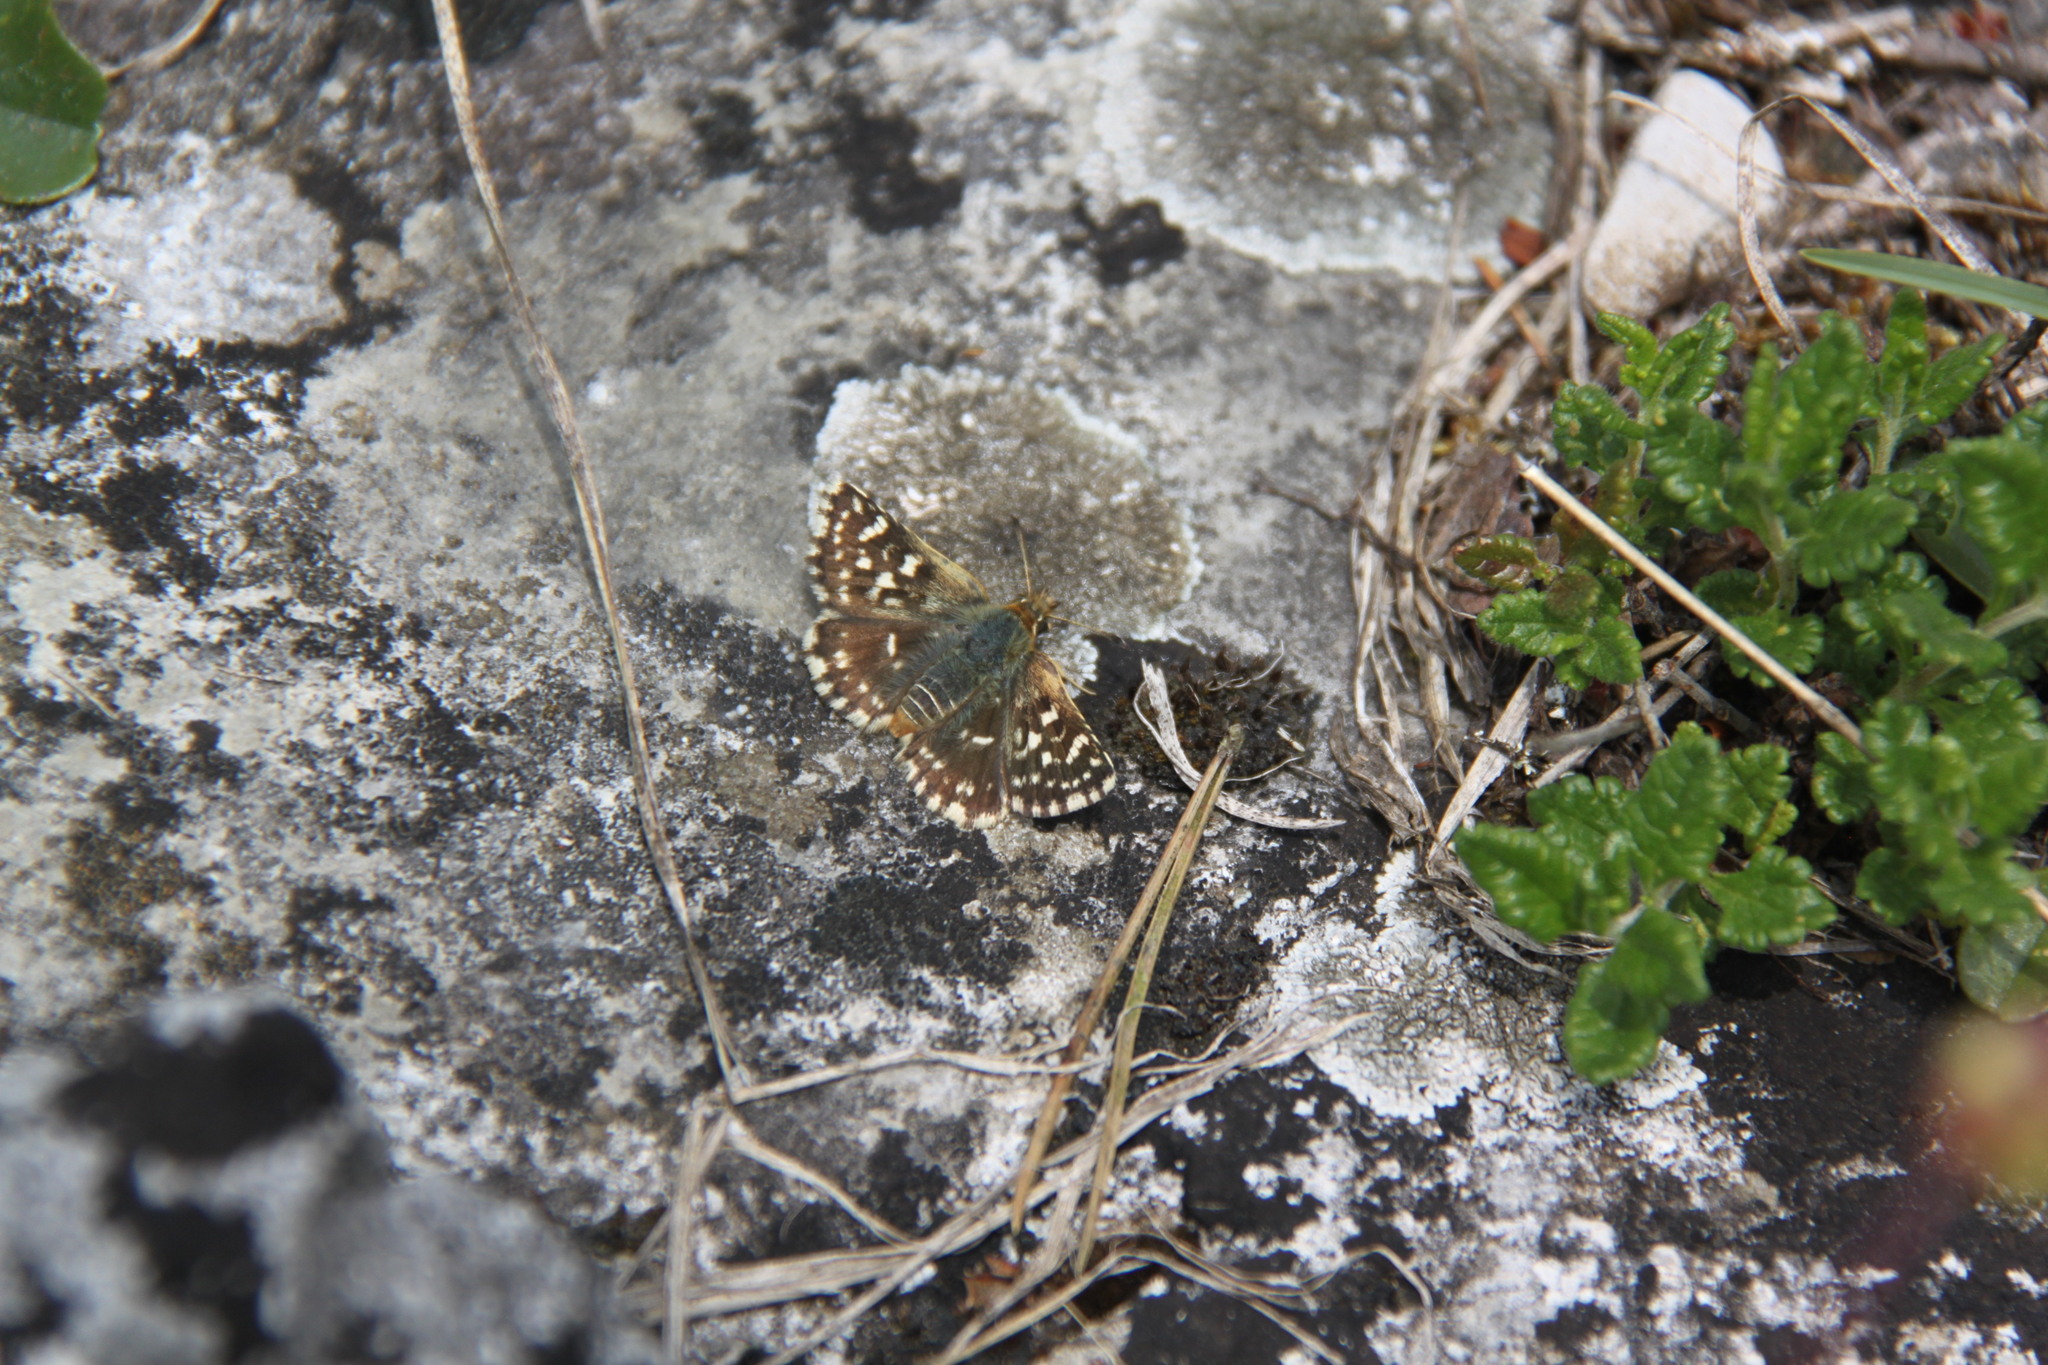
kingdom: Animalia
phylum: Arthropoda
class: Insecta
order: Lepidoptera
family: Hesperiidae
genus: Spialia
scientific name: Spialia sertorius
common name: Red underwing skipper
